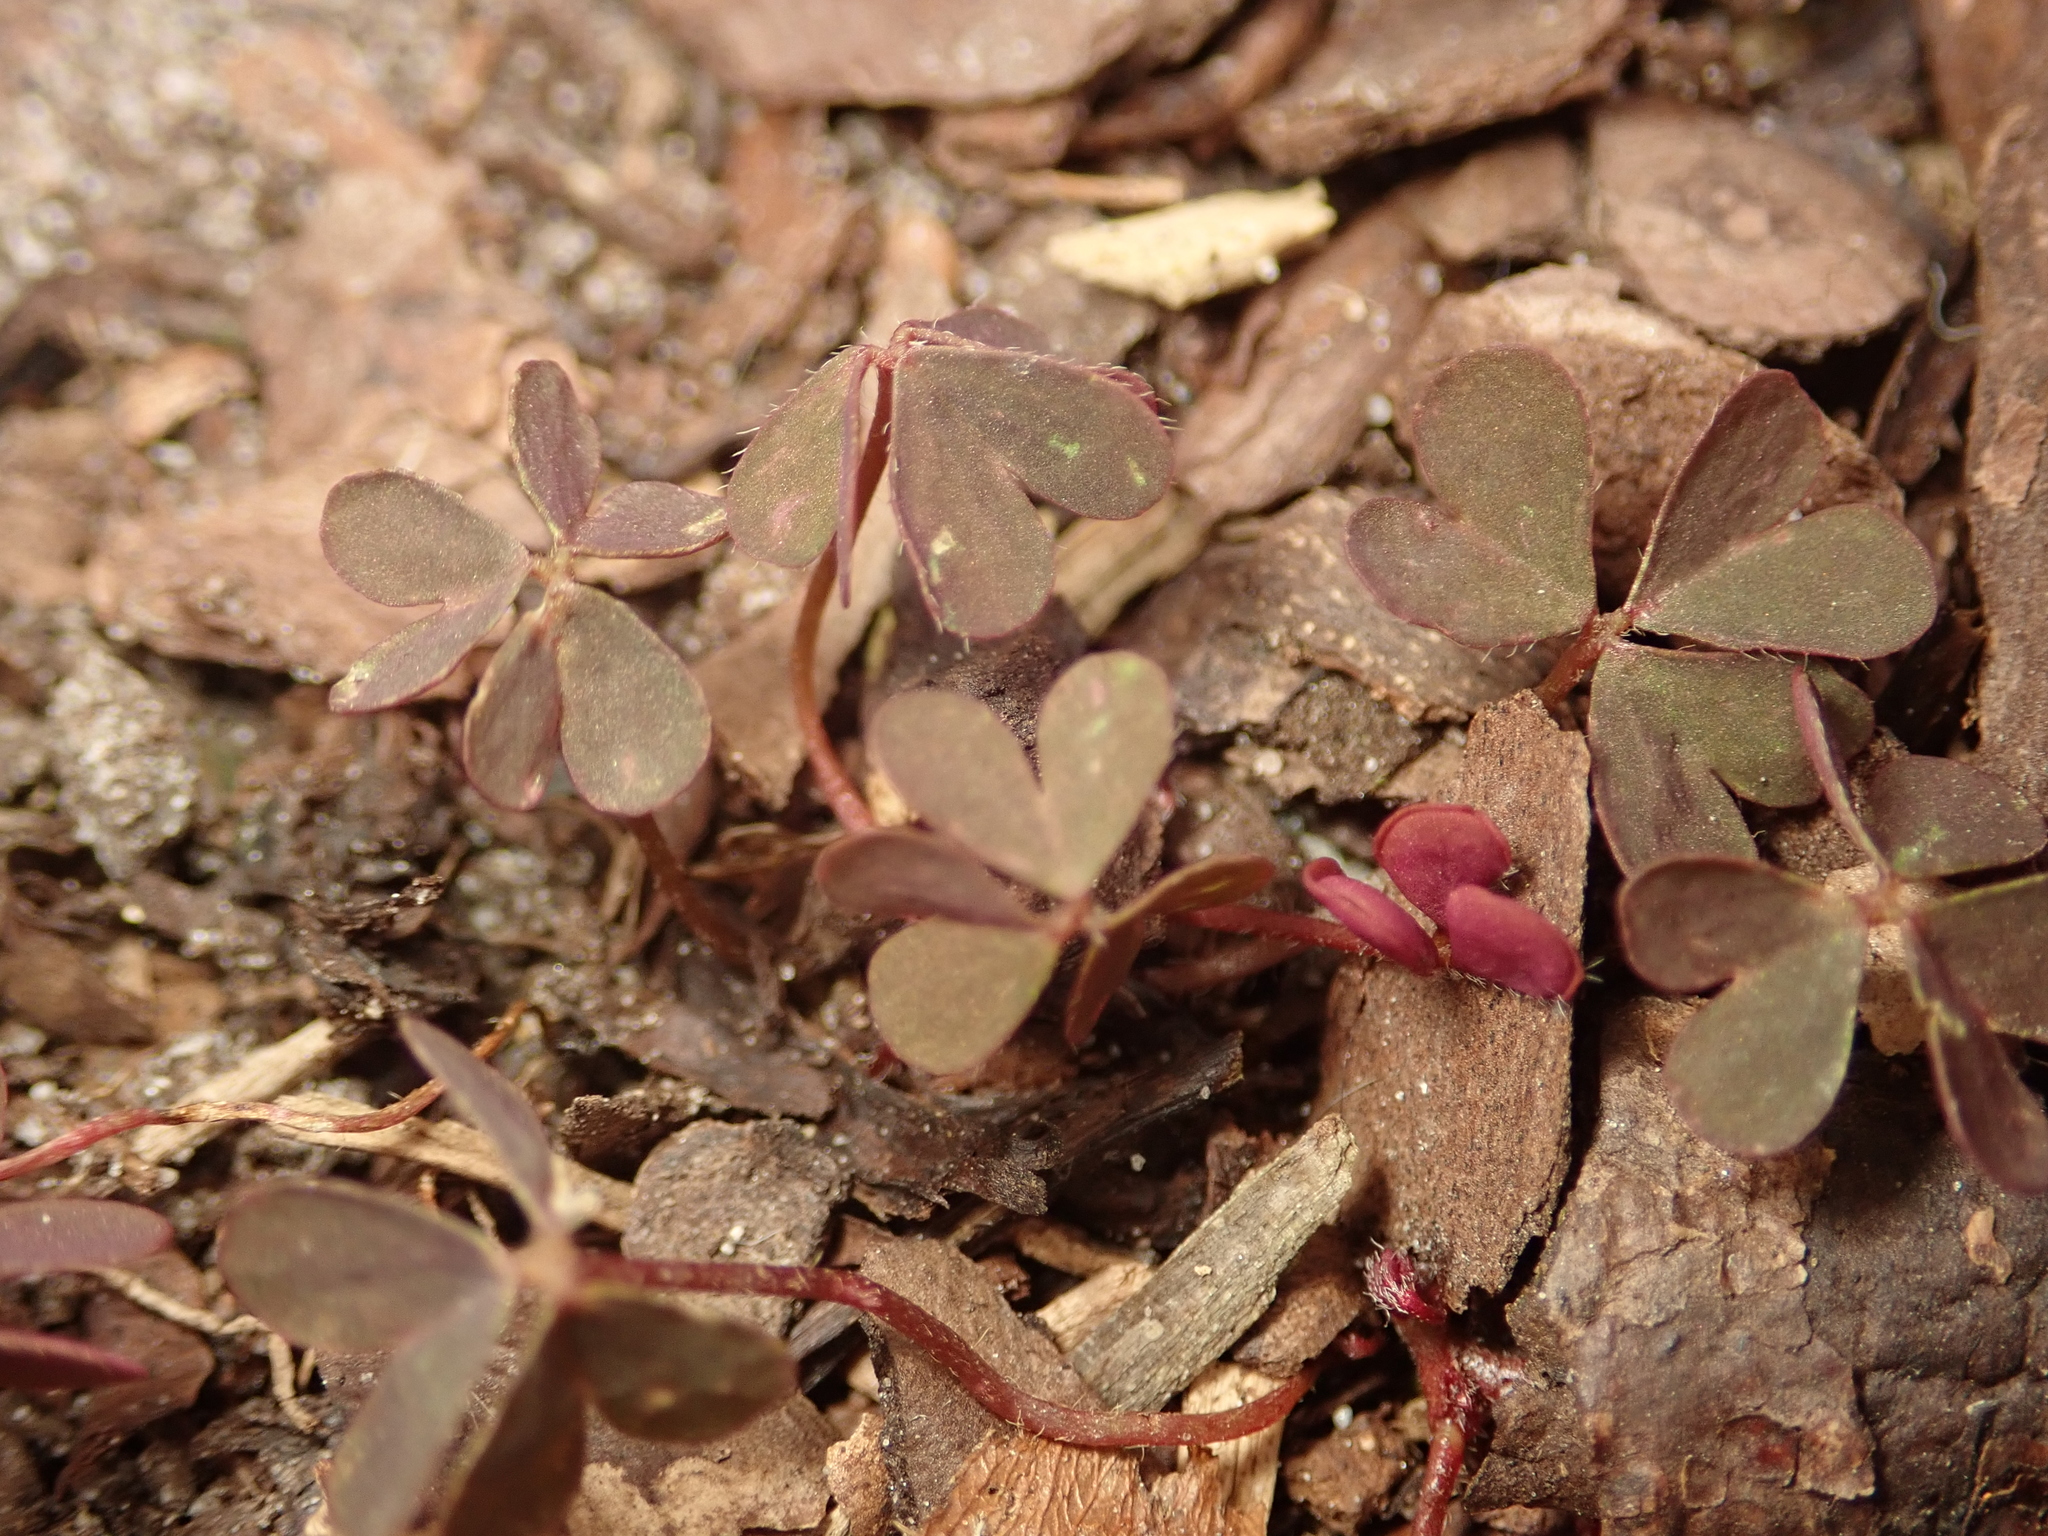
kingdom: Plantae
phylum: Tracheophyta
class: Magnoliopsida
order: Oxalidales
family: Oxalidaceae
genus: Oxalis
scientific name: Oxalis corniculata
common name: Procumbent yellow-sorrel
